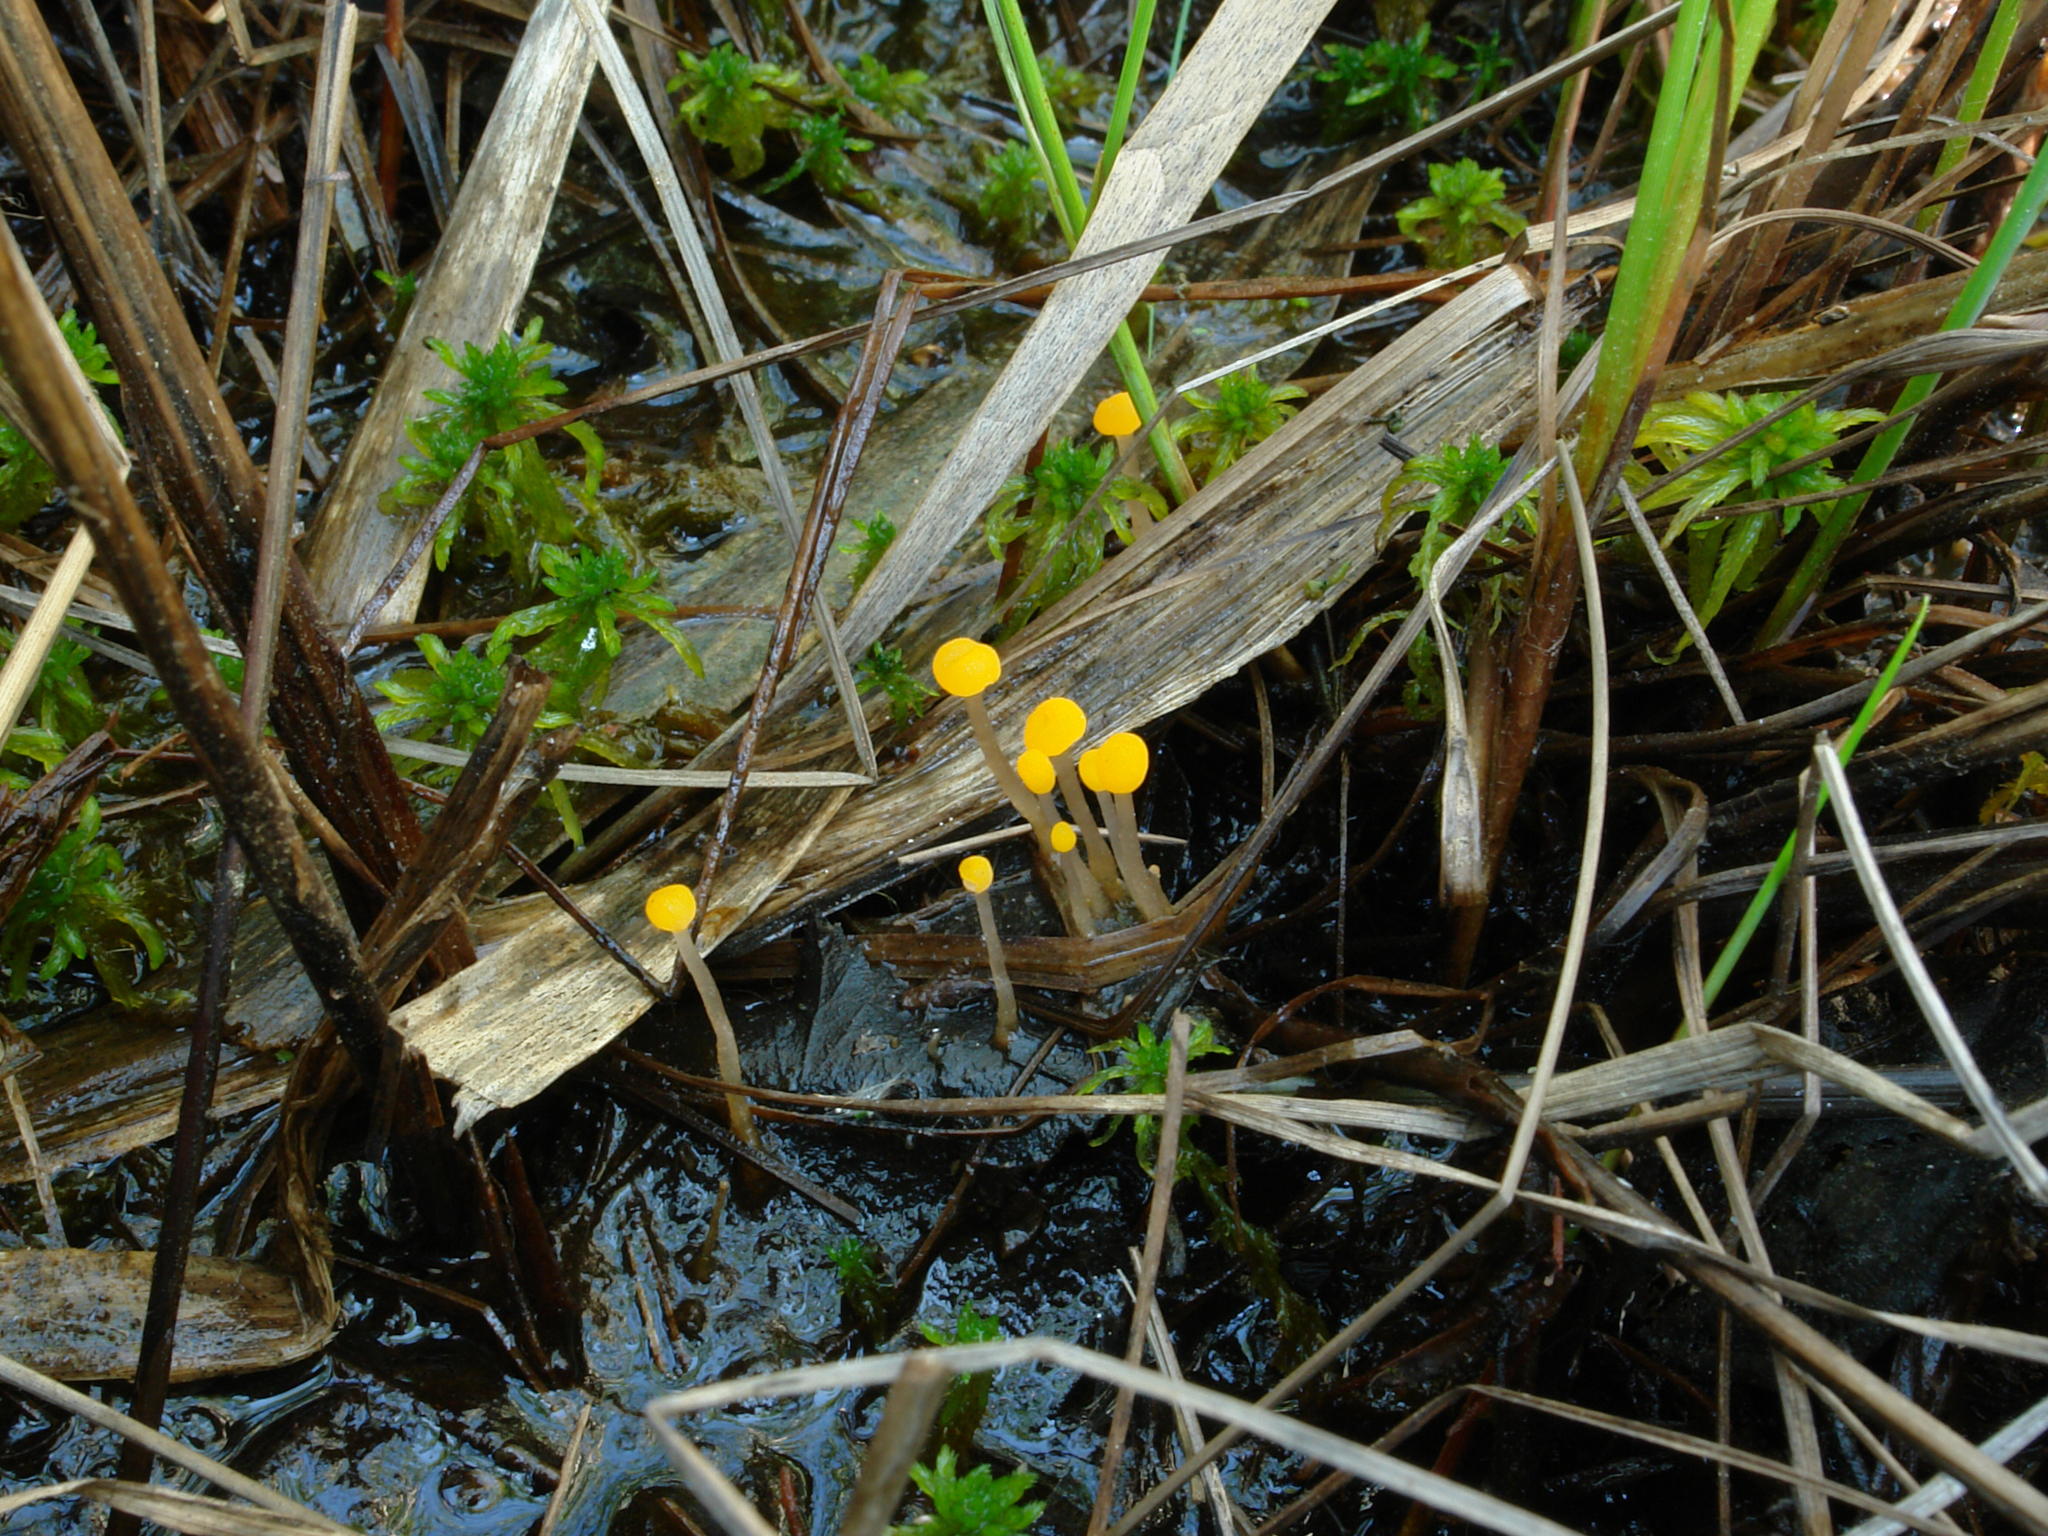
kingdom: Fungi
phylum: Ascomycota
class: Leotiomycetes
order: Helotiales
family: Cenangiaceae
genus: Mitrula
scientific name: Mitrula paludosa
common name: Bog beacon
